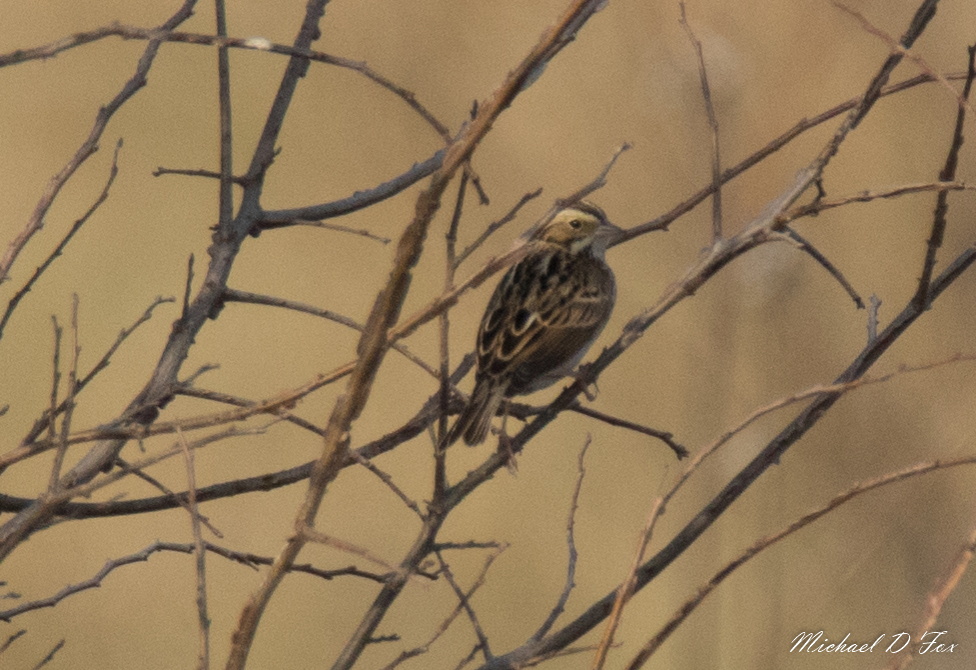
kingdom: Animalia
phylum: Chordata
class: Aves
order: Passeriformes
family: Passerellidae
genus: Passerculus
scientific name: Passerculus sandwichensis
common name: Savannah sparrow
